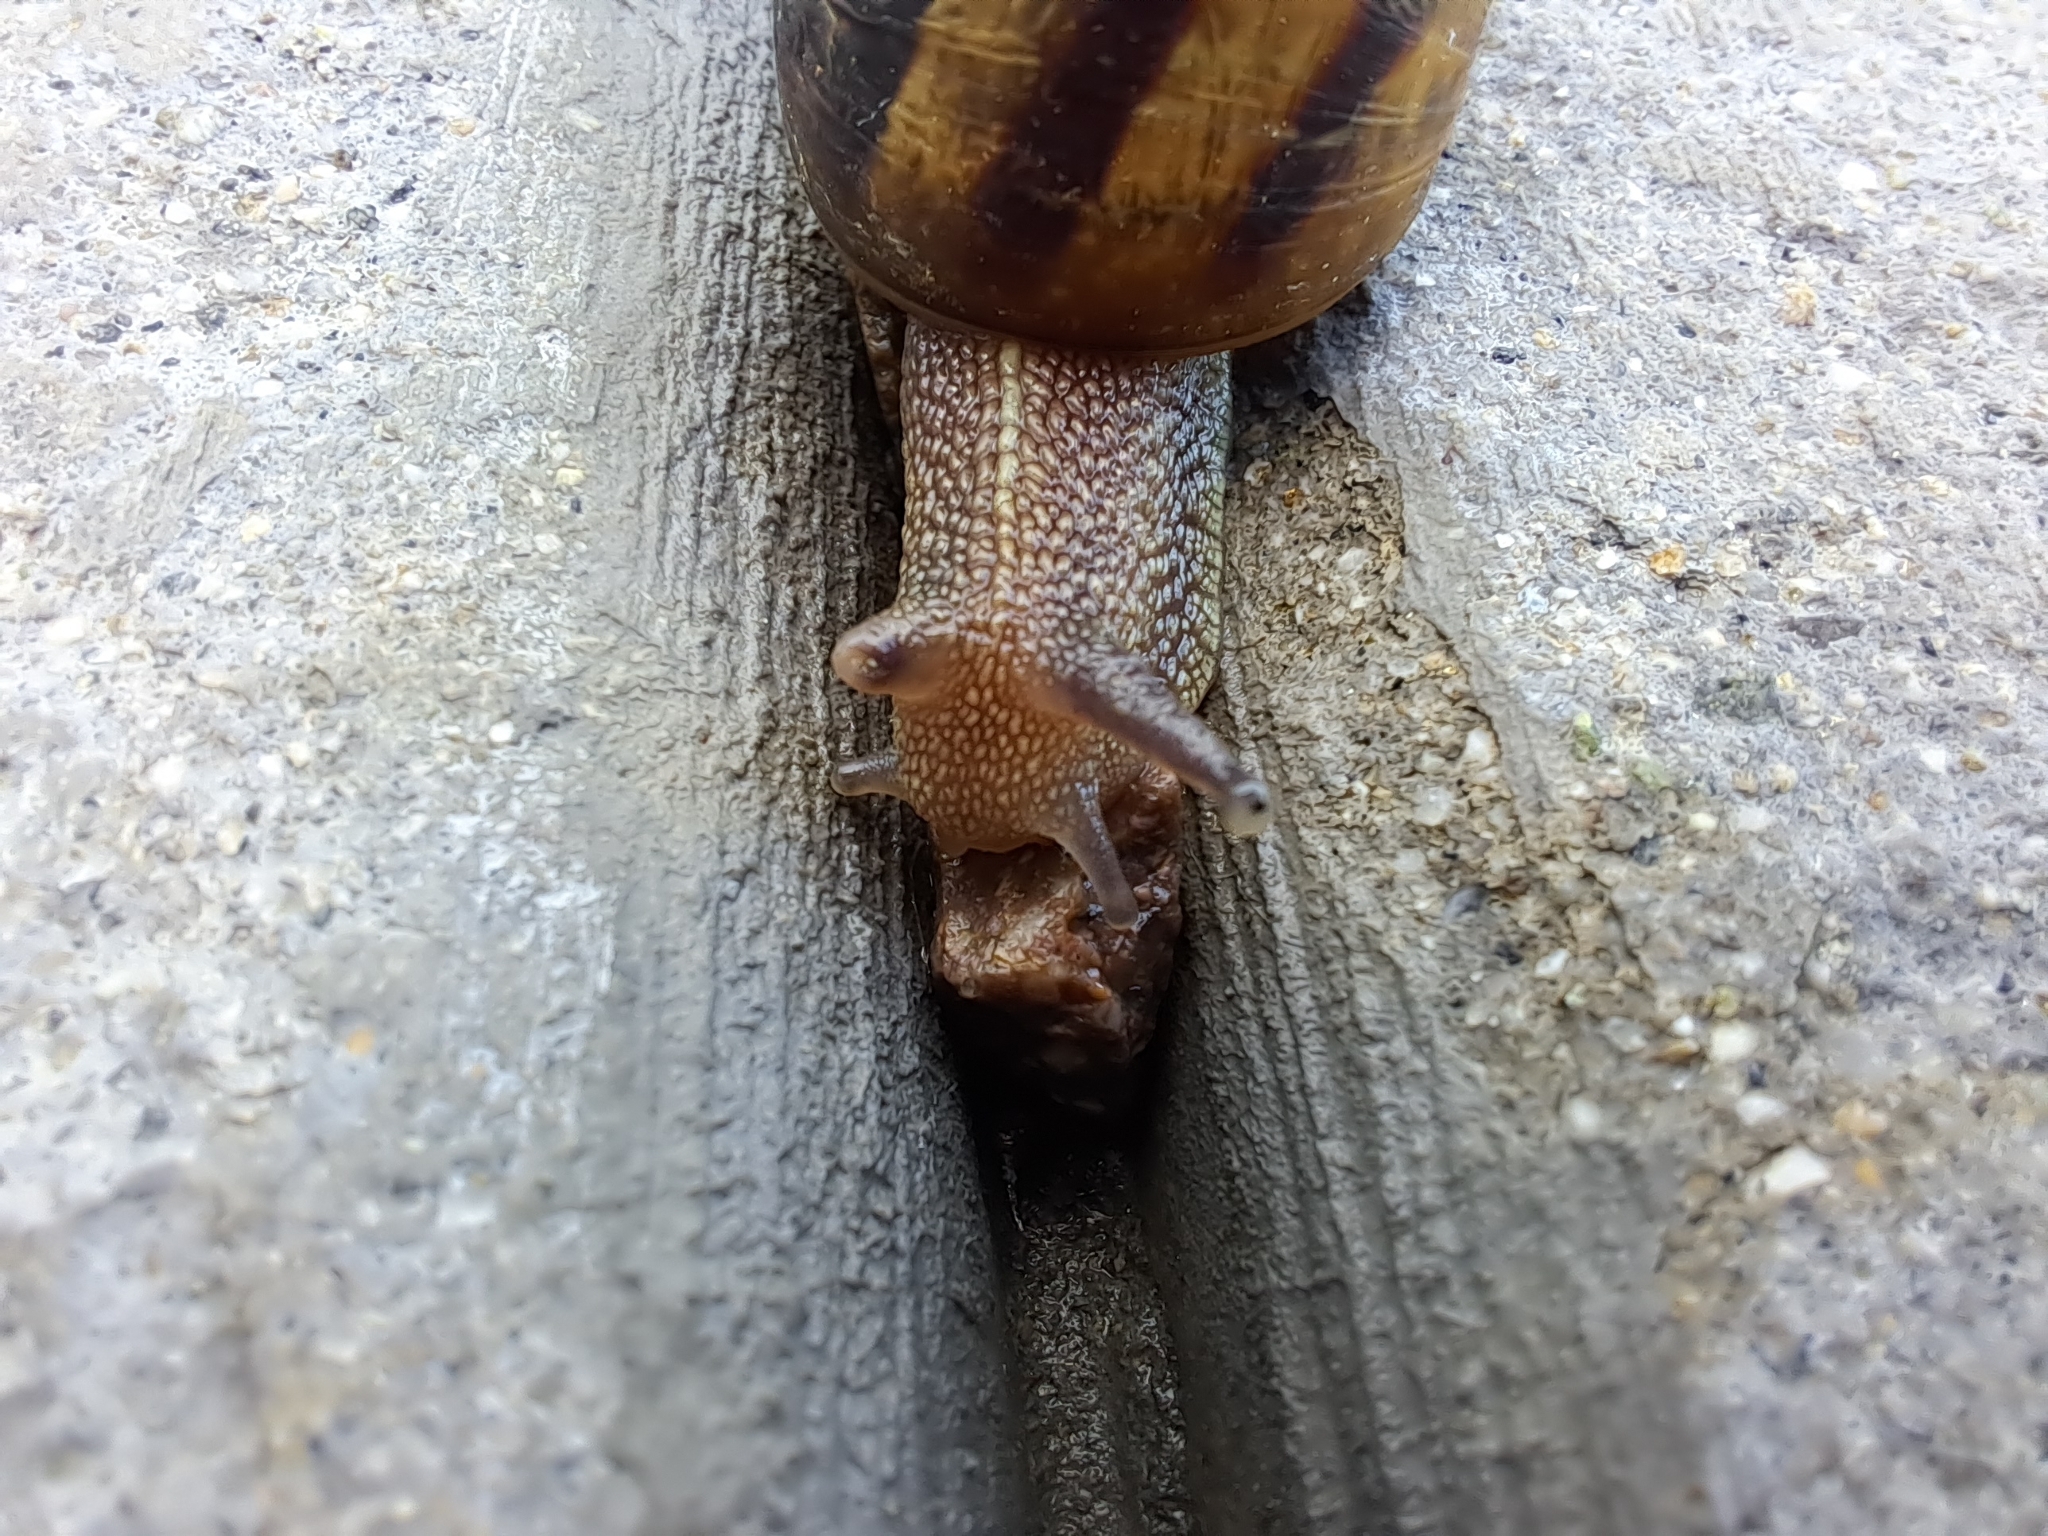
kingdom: Animalia
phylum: Mollusca
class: Gastropoda
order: Stylommatophora
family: Helicidae
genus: Cornu
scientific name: Cornu aspersum
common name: Brown garden snail
